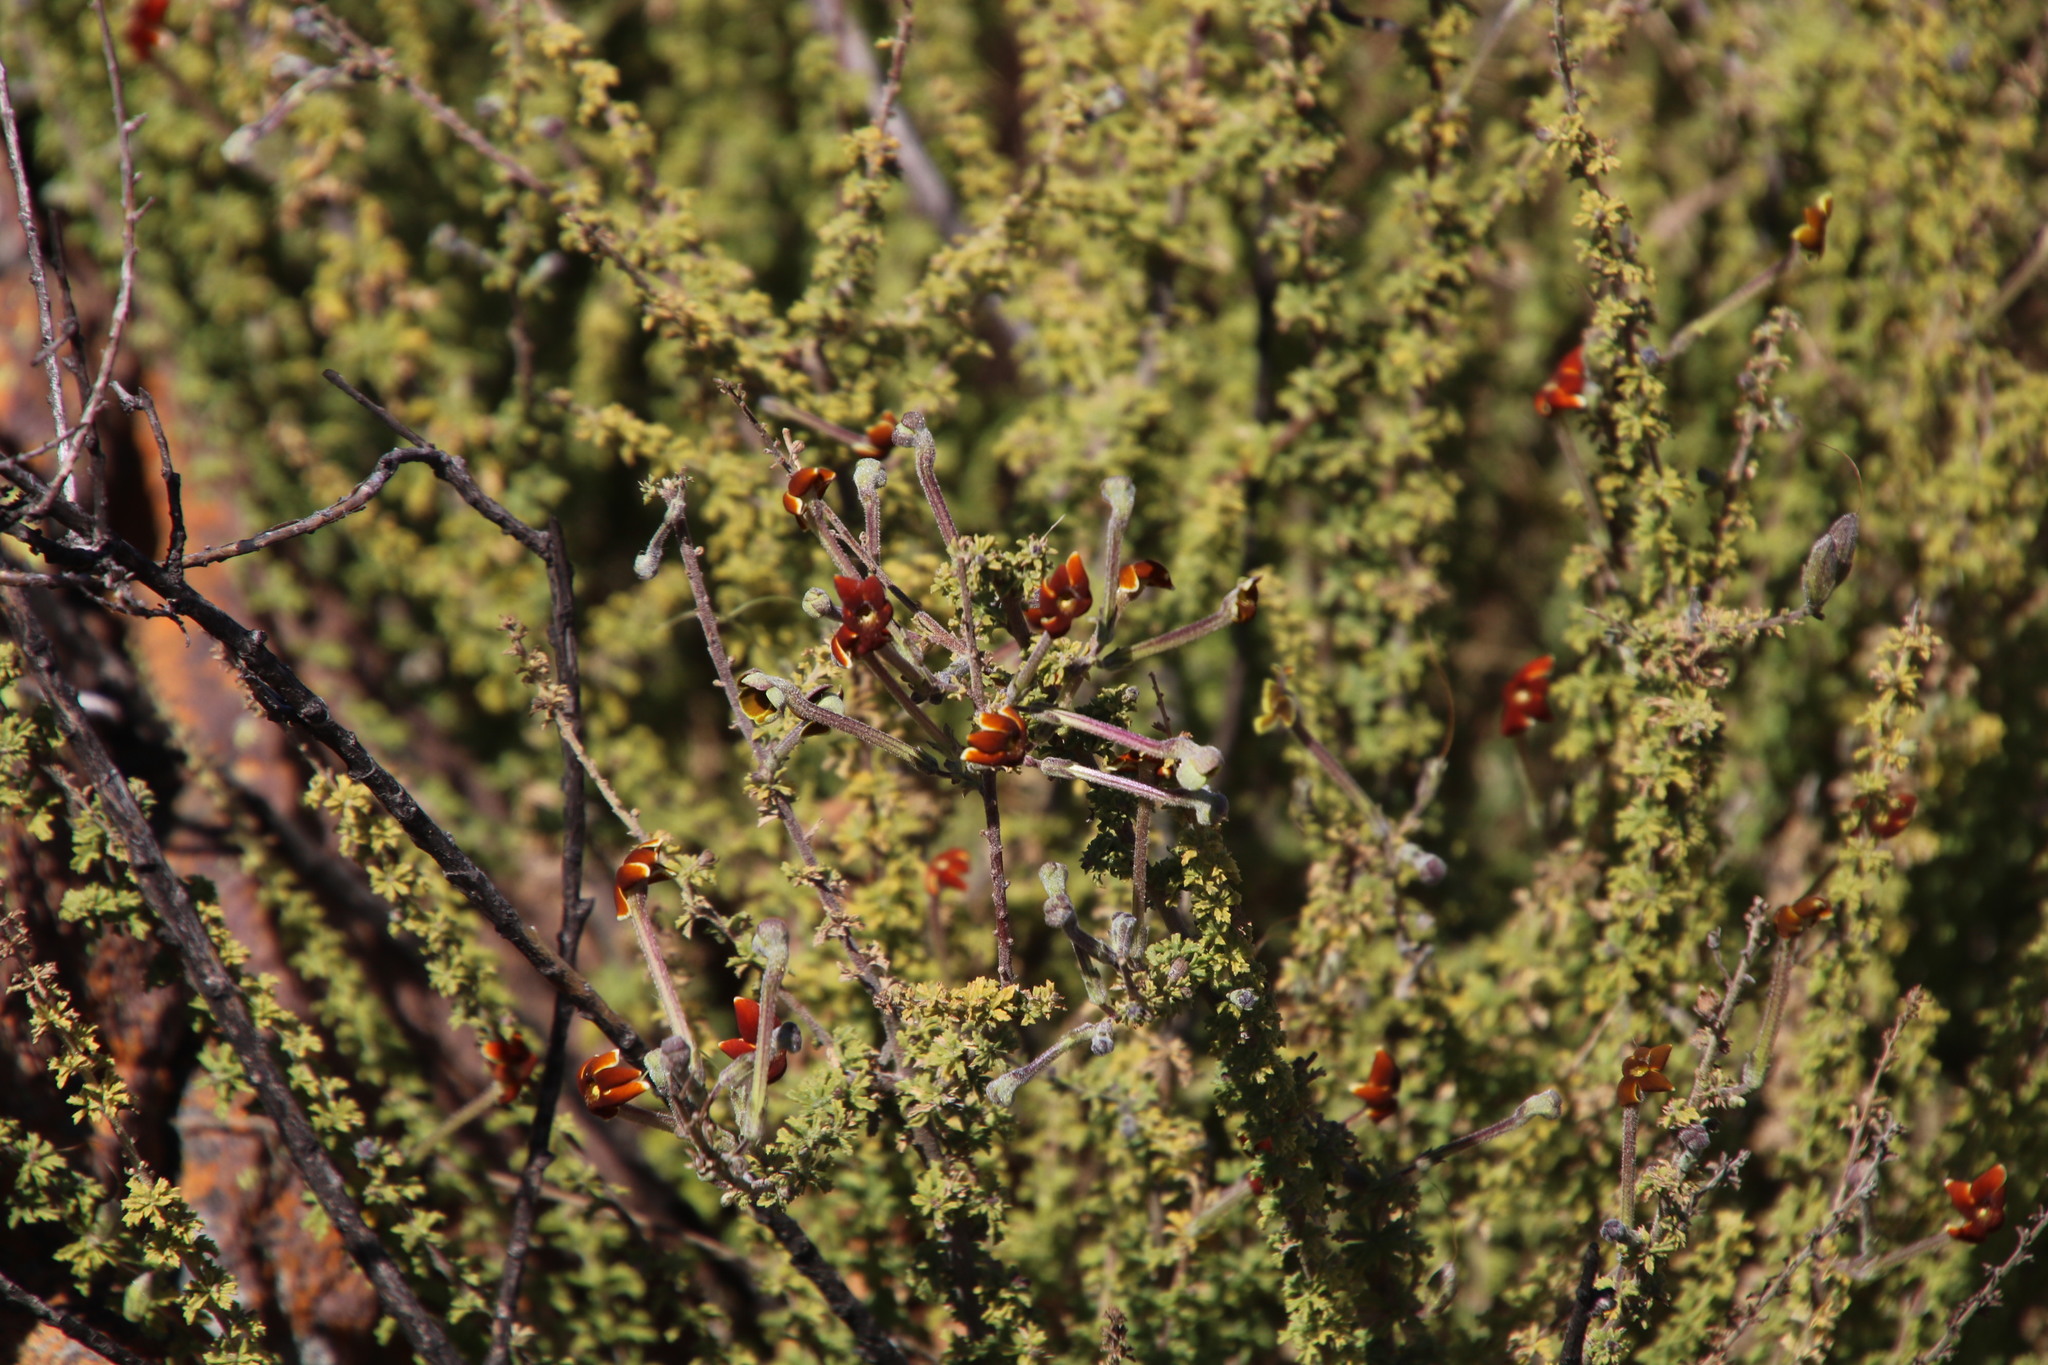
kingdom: Plantae
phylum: Tracheophyta
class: Magnoliopsida
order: Lamiales
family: Scrophulariaceae
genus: Jamesbrittenia
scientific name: Jamesbrittenia burkeana
